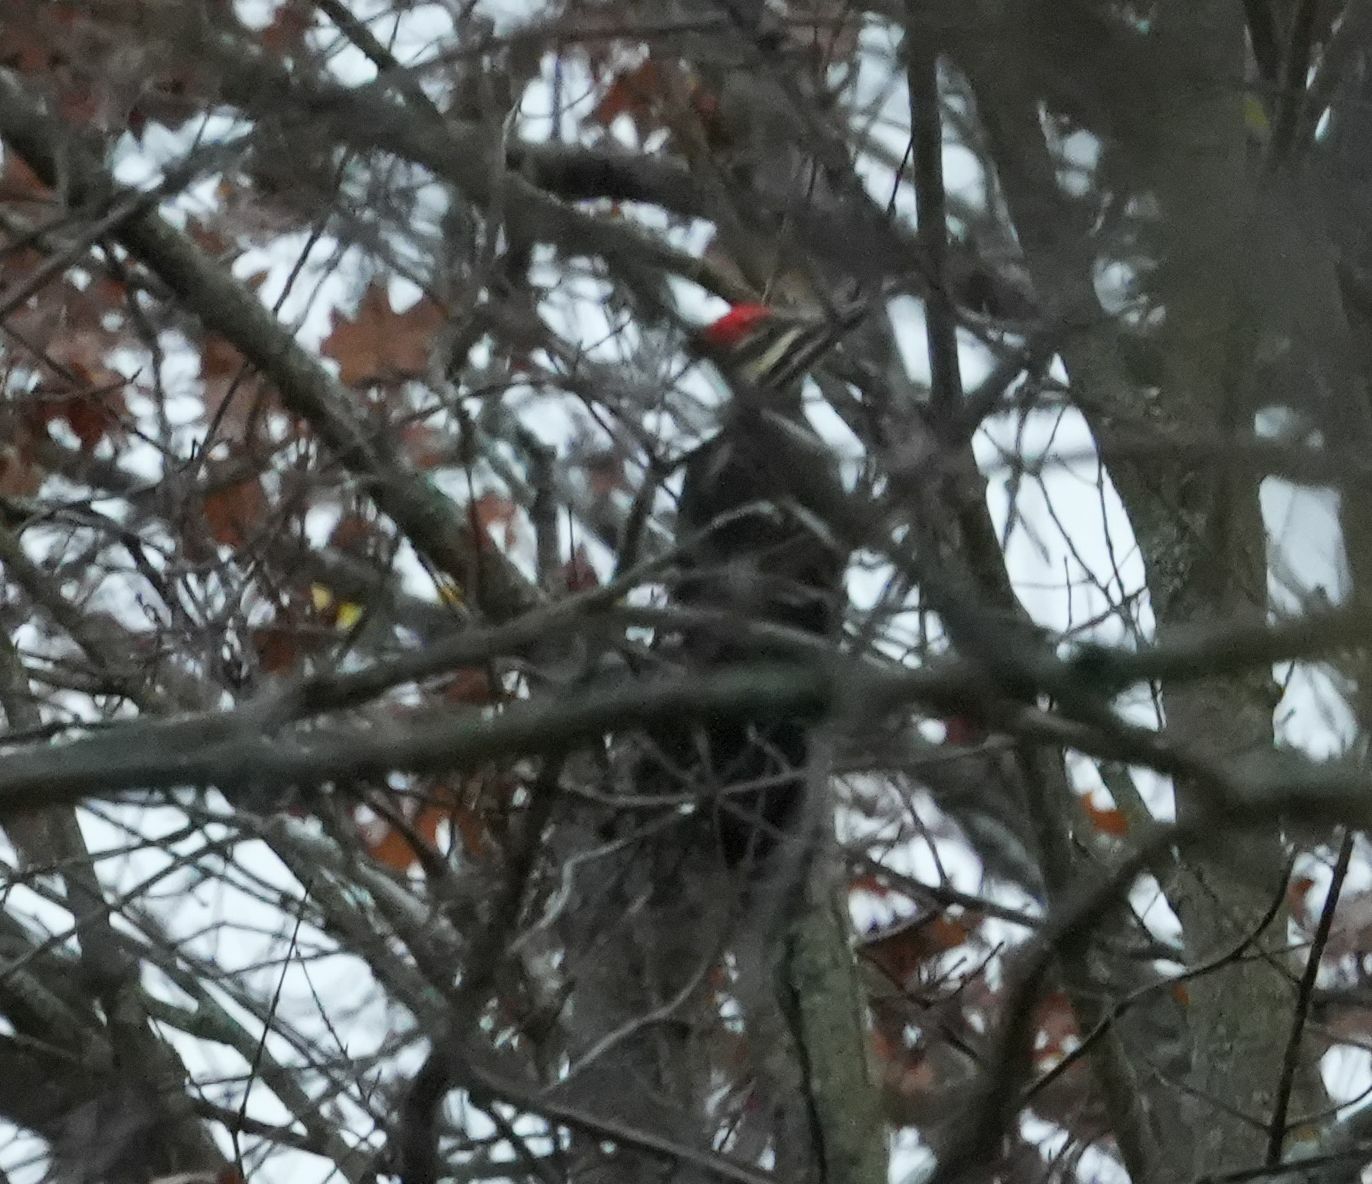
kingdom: Animalia
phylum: Chordata
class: Aves
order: Piciformes
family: Picidae
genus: Dryocopus
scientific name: Dryocopus pileatus
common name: Pileated woodpecker
